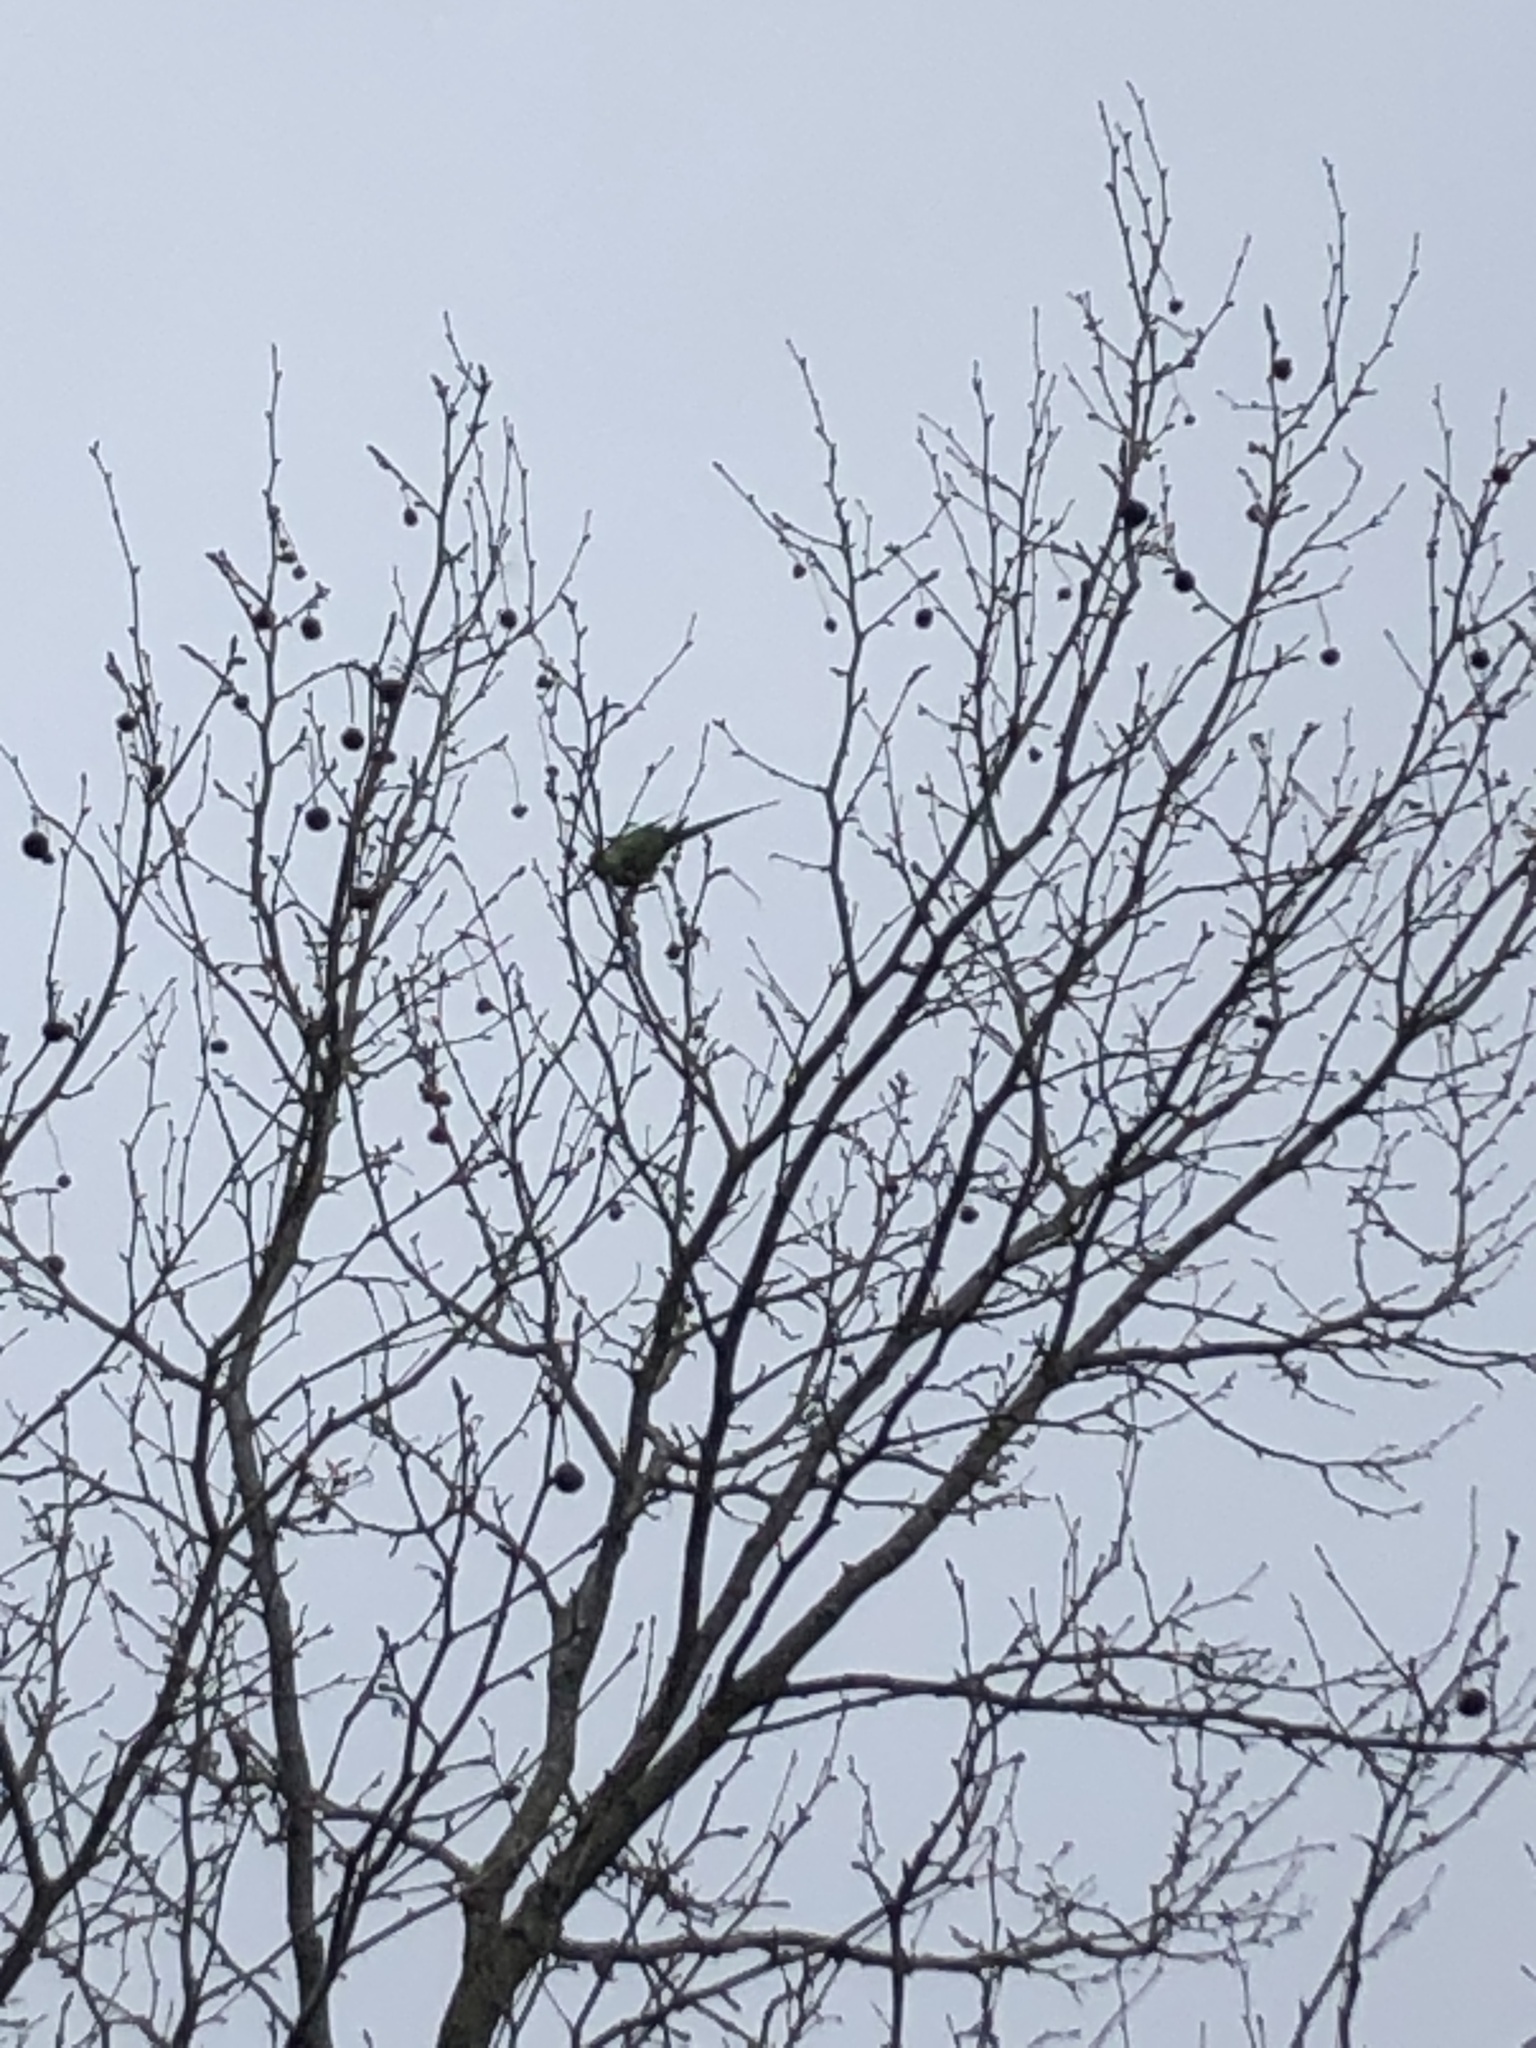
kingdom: Animalia
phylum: Chordata
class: Aves
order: Psittaciformes
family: Psittacidae
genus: Psittacula
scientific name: Psittacula krameri
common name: Rose-ringed parakeet
